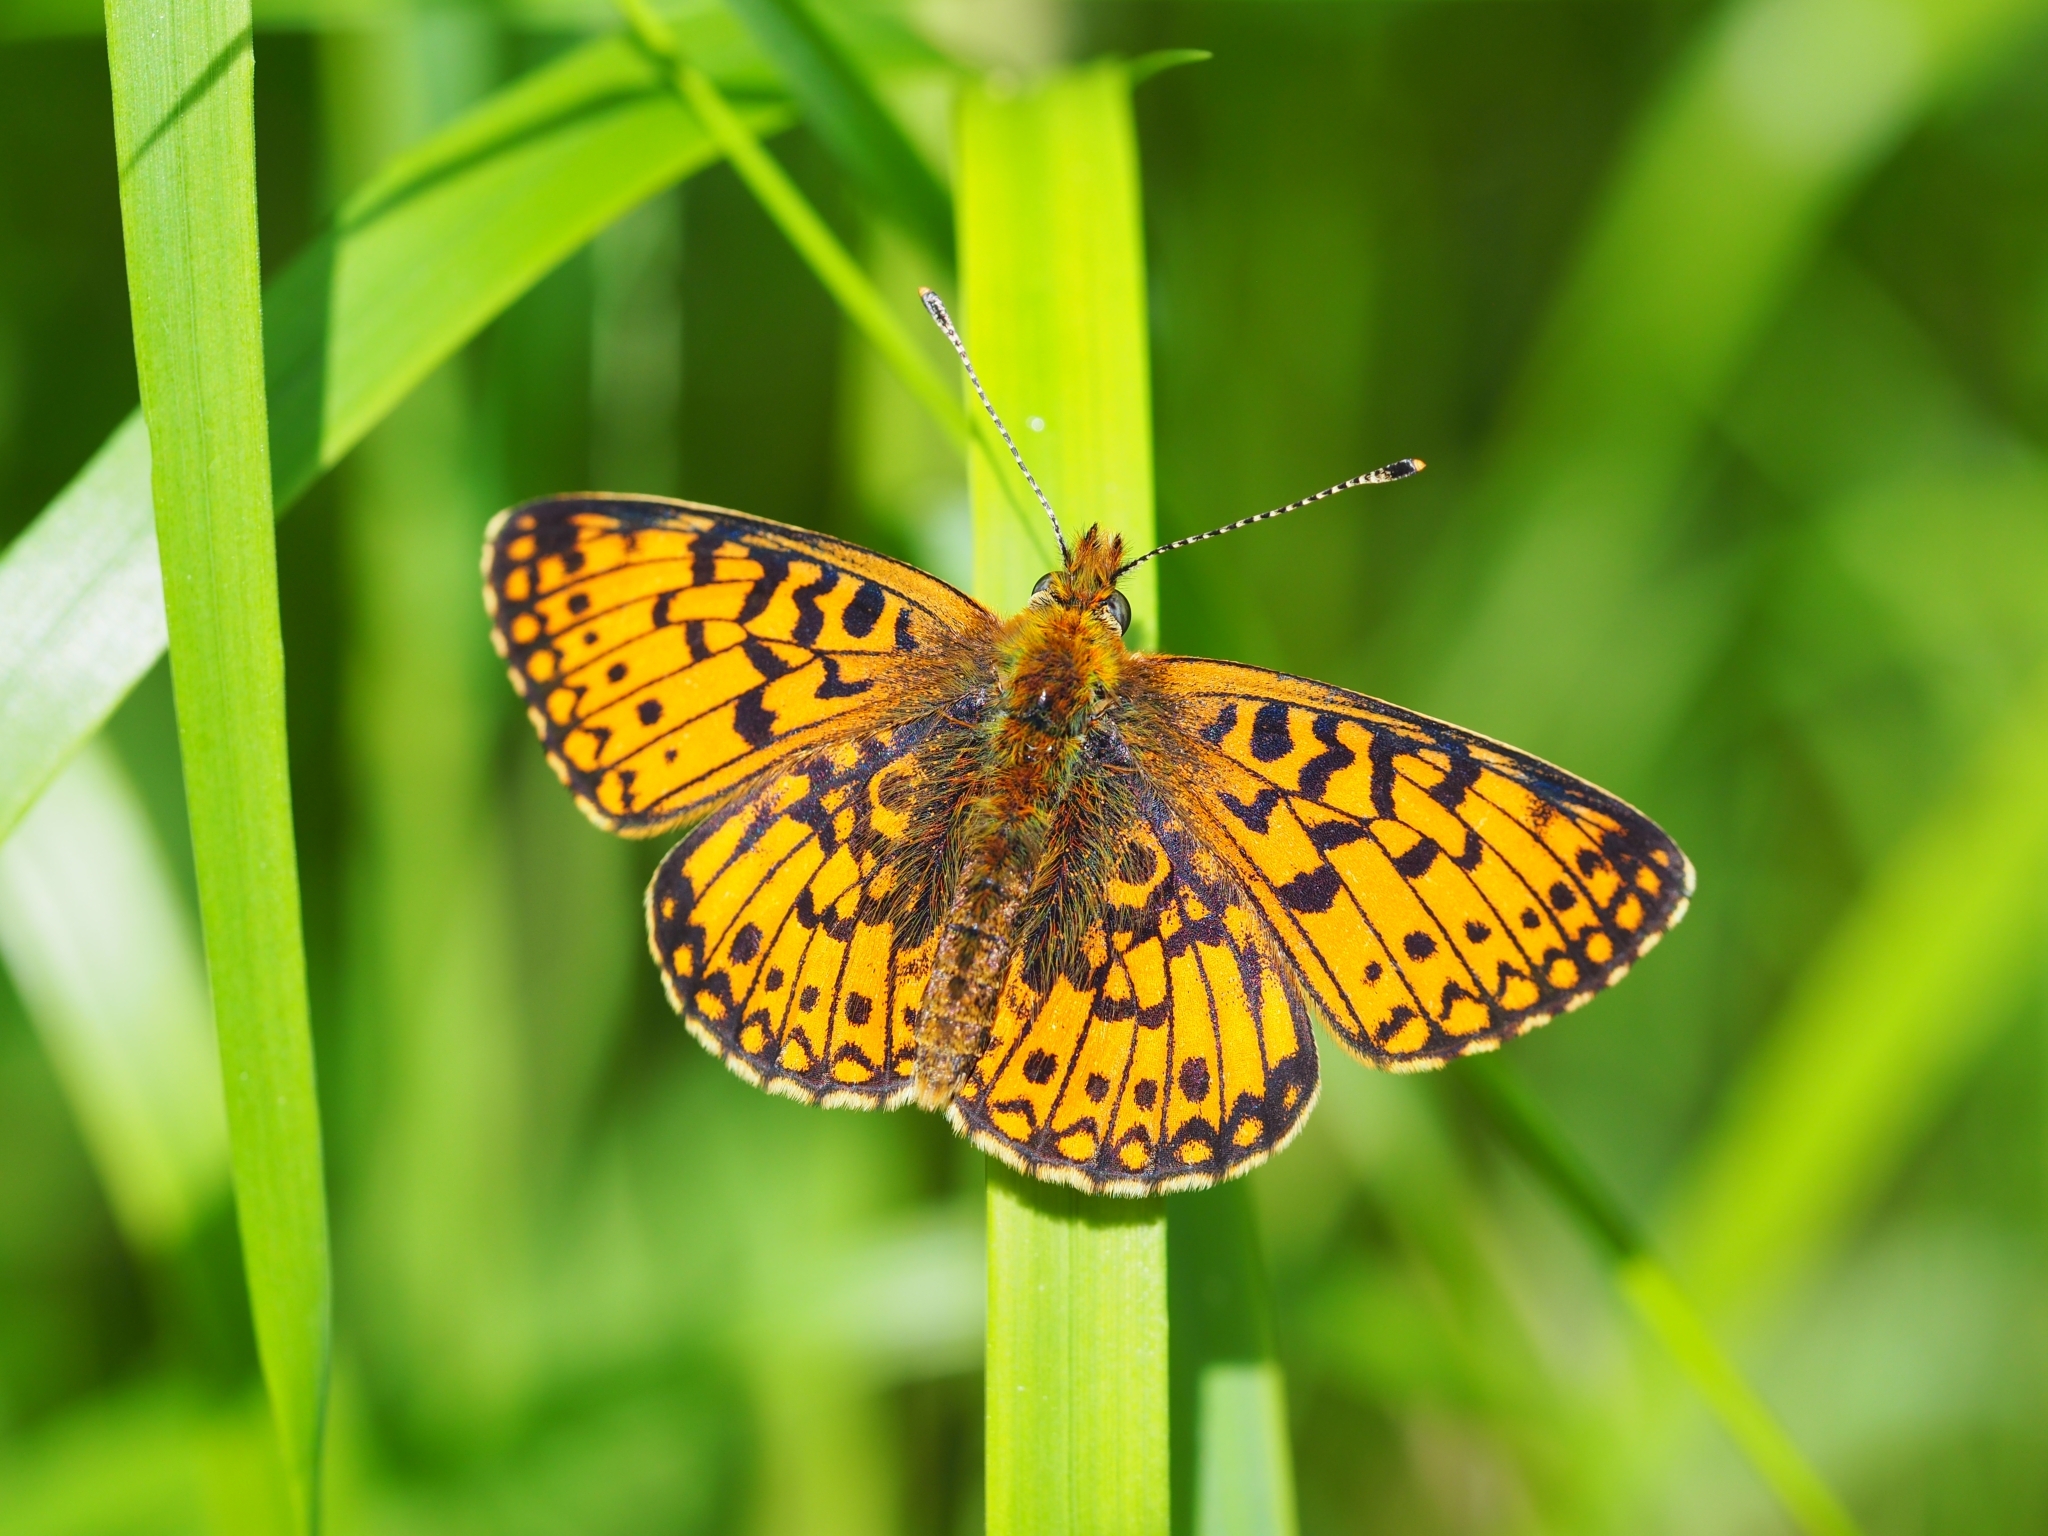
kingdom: Animalia
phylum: Arthropoda
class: Insecta
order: Lepidoptera
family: Nymphalidae
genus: Boloria
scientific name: Boloria selene
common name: Small pearl-bordered fritillary
